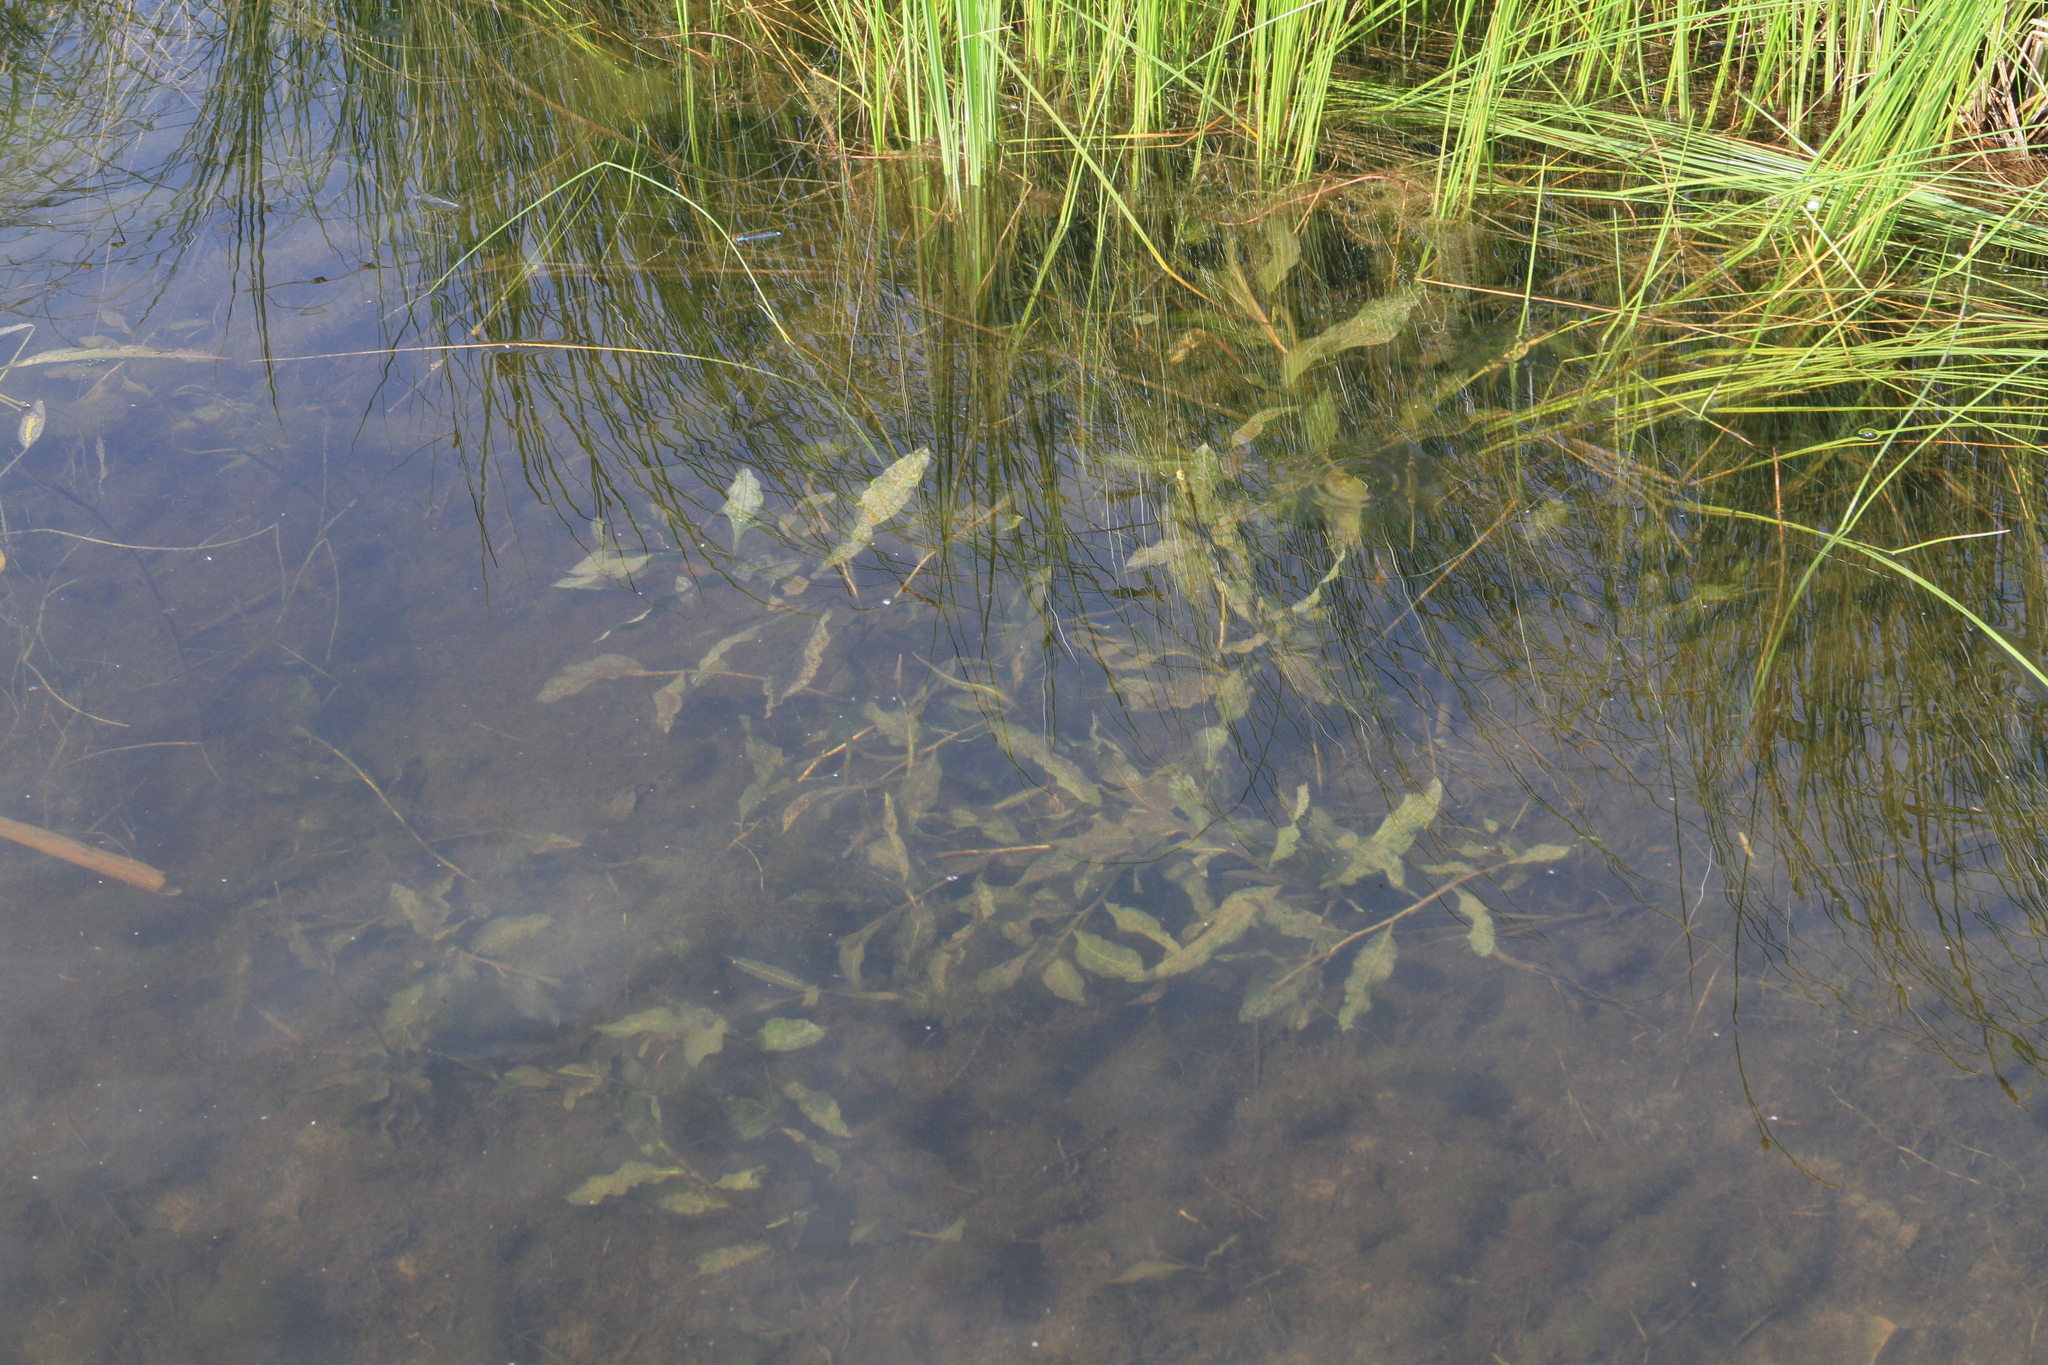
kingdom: Plantae
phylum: Tracheophyta
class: Liliopsida
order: Alismatales
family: Potamogetonaceae
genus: Potamogeton
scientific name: Potamogeton lucens
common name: Shining pondweed
